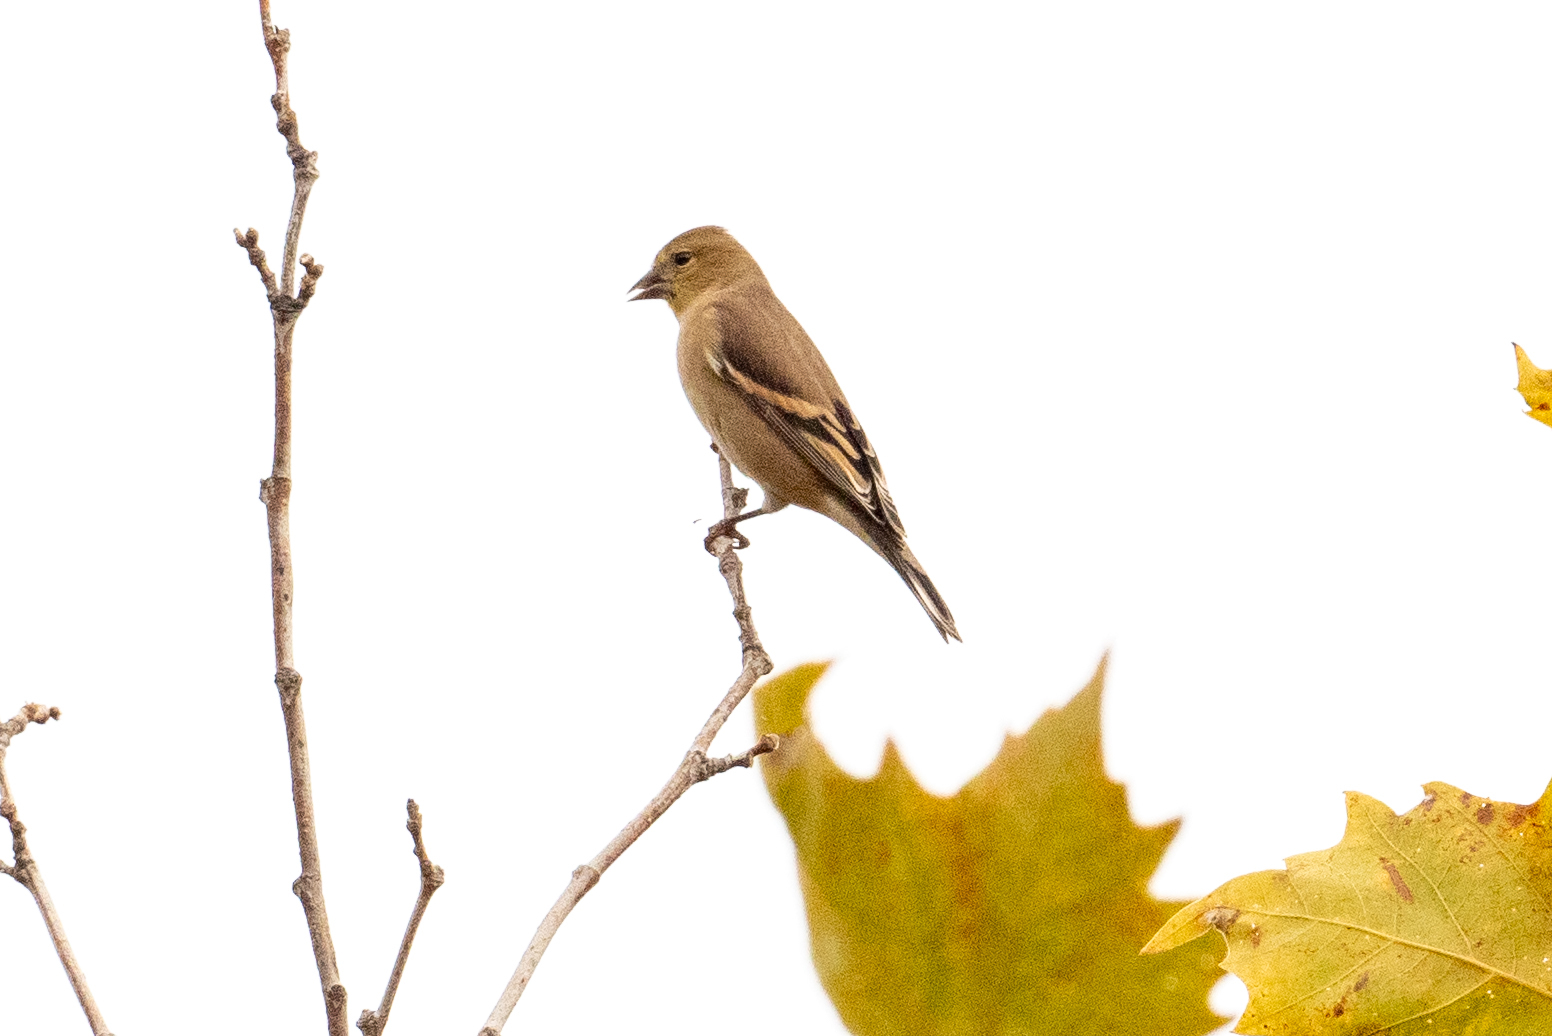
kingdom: Animalia
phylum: Chordata
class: Aves
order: Passeriformes
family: Fringillidae
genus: Spinus
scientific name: Spinus tristis
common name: American goldfinch
